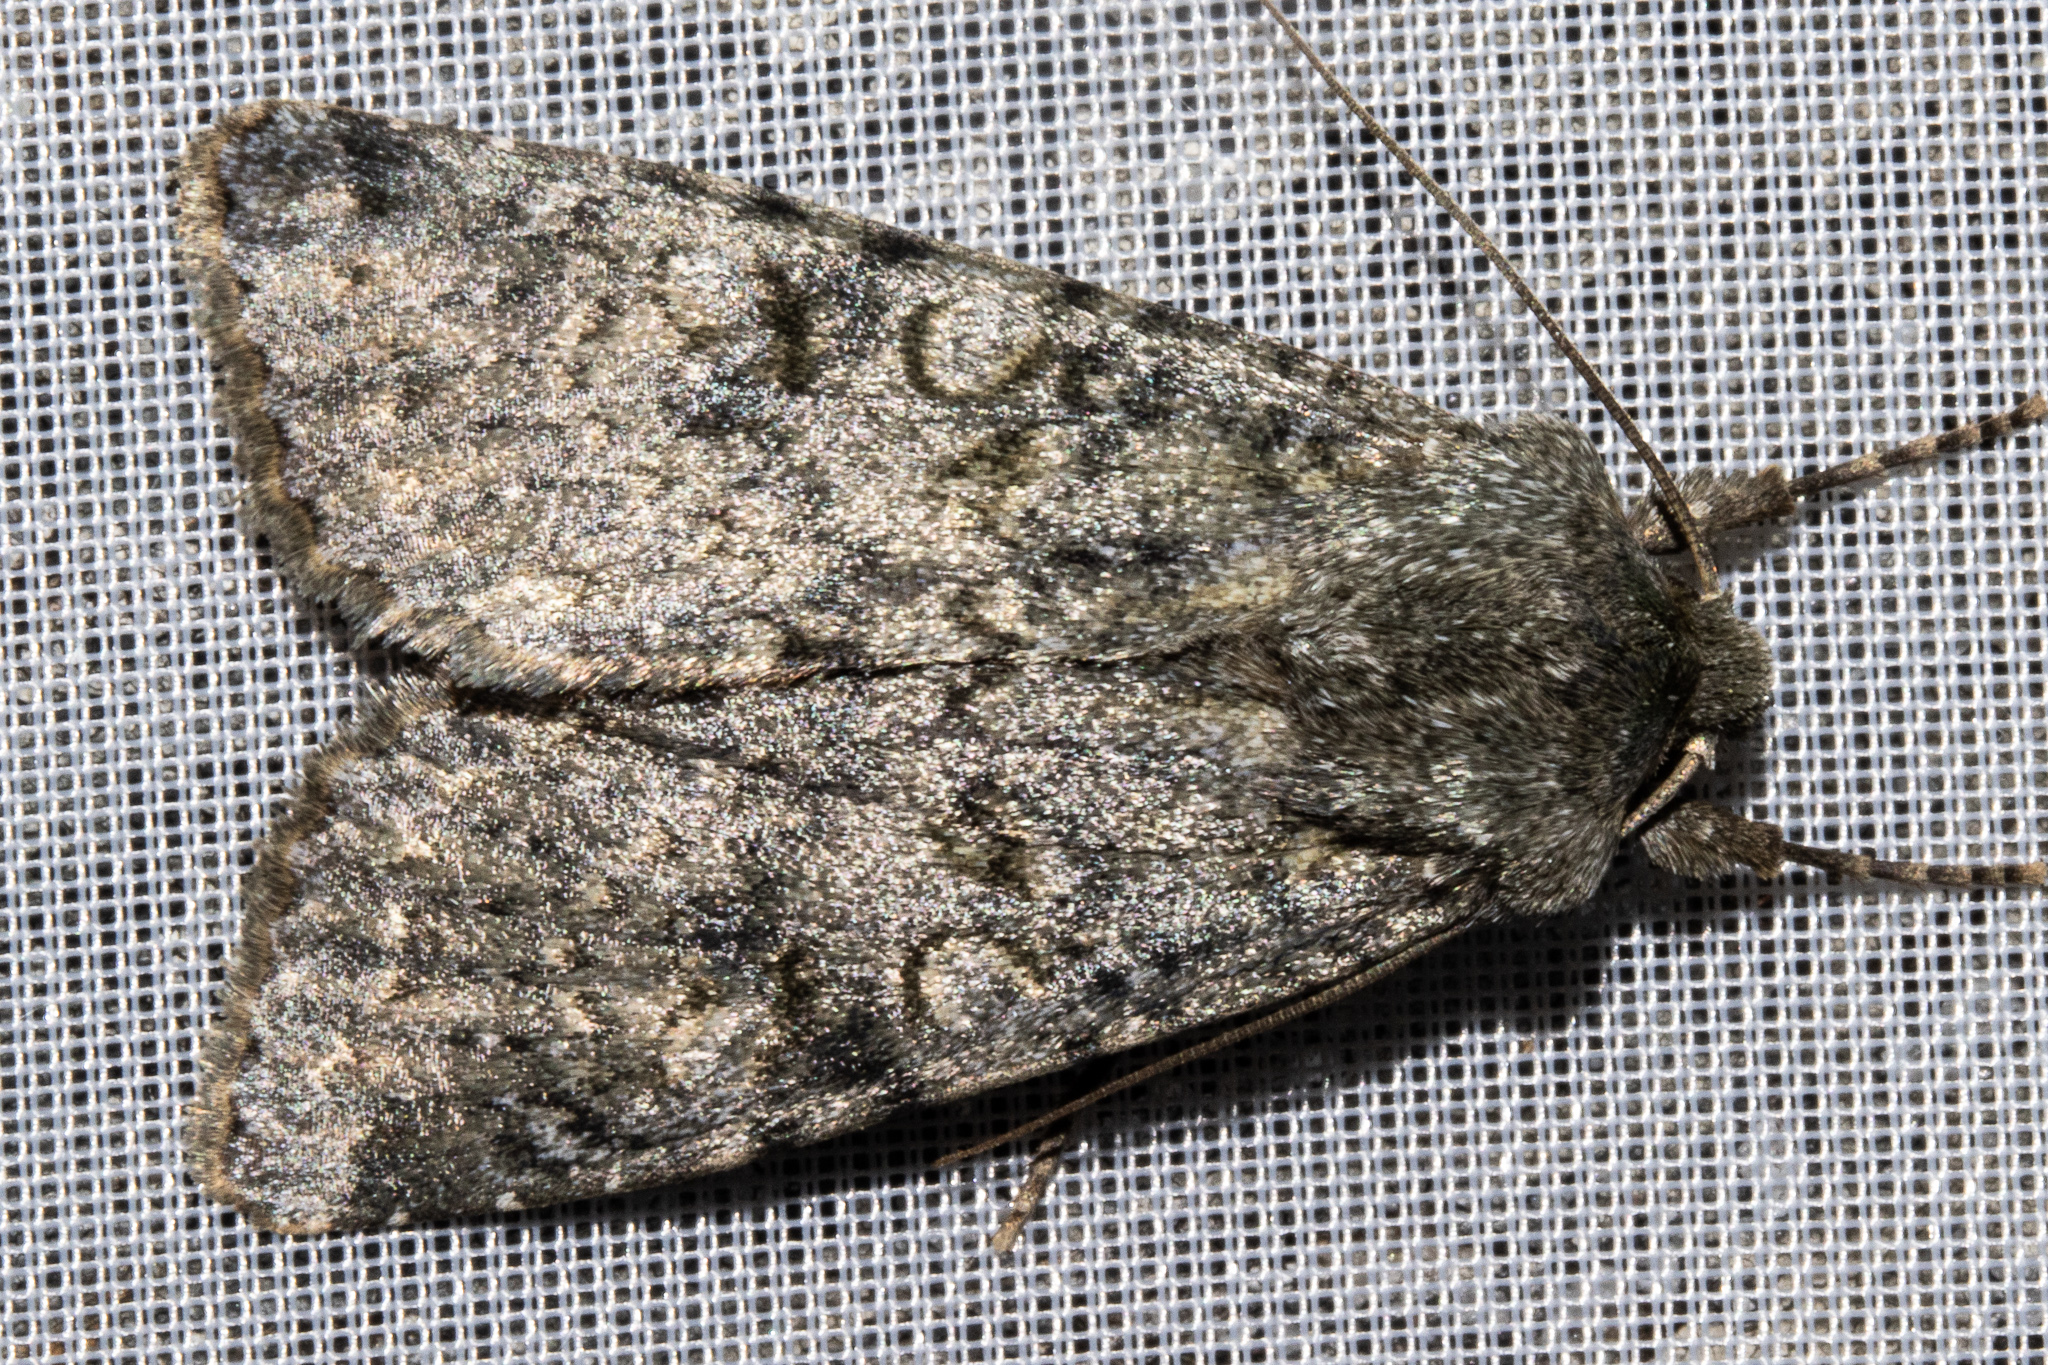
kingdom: Animalia
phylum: Arthropoda
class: Insecta
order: Lepidoptera
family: Noctuidae
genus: Ichneutica
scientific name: Ichneutica
